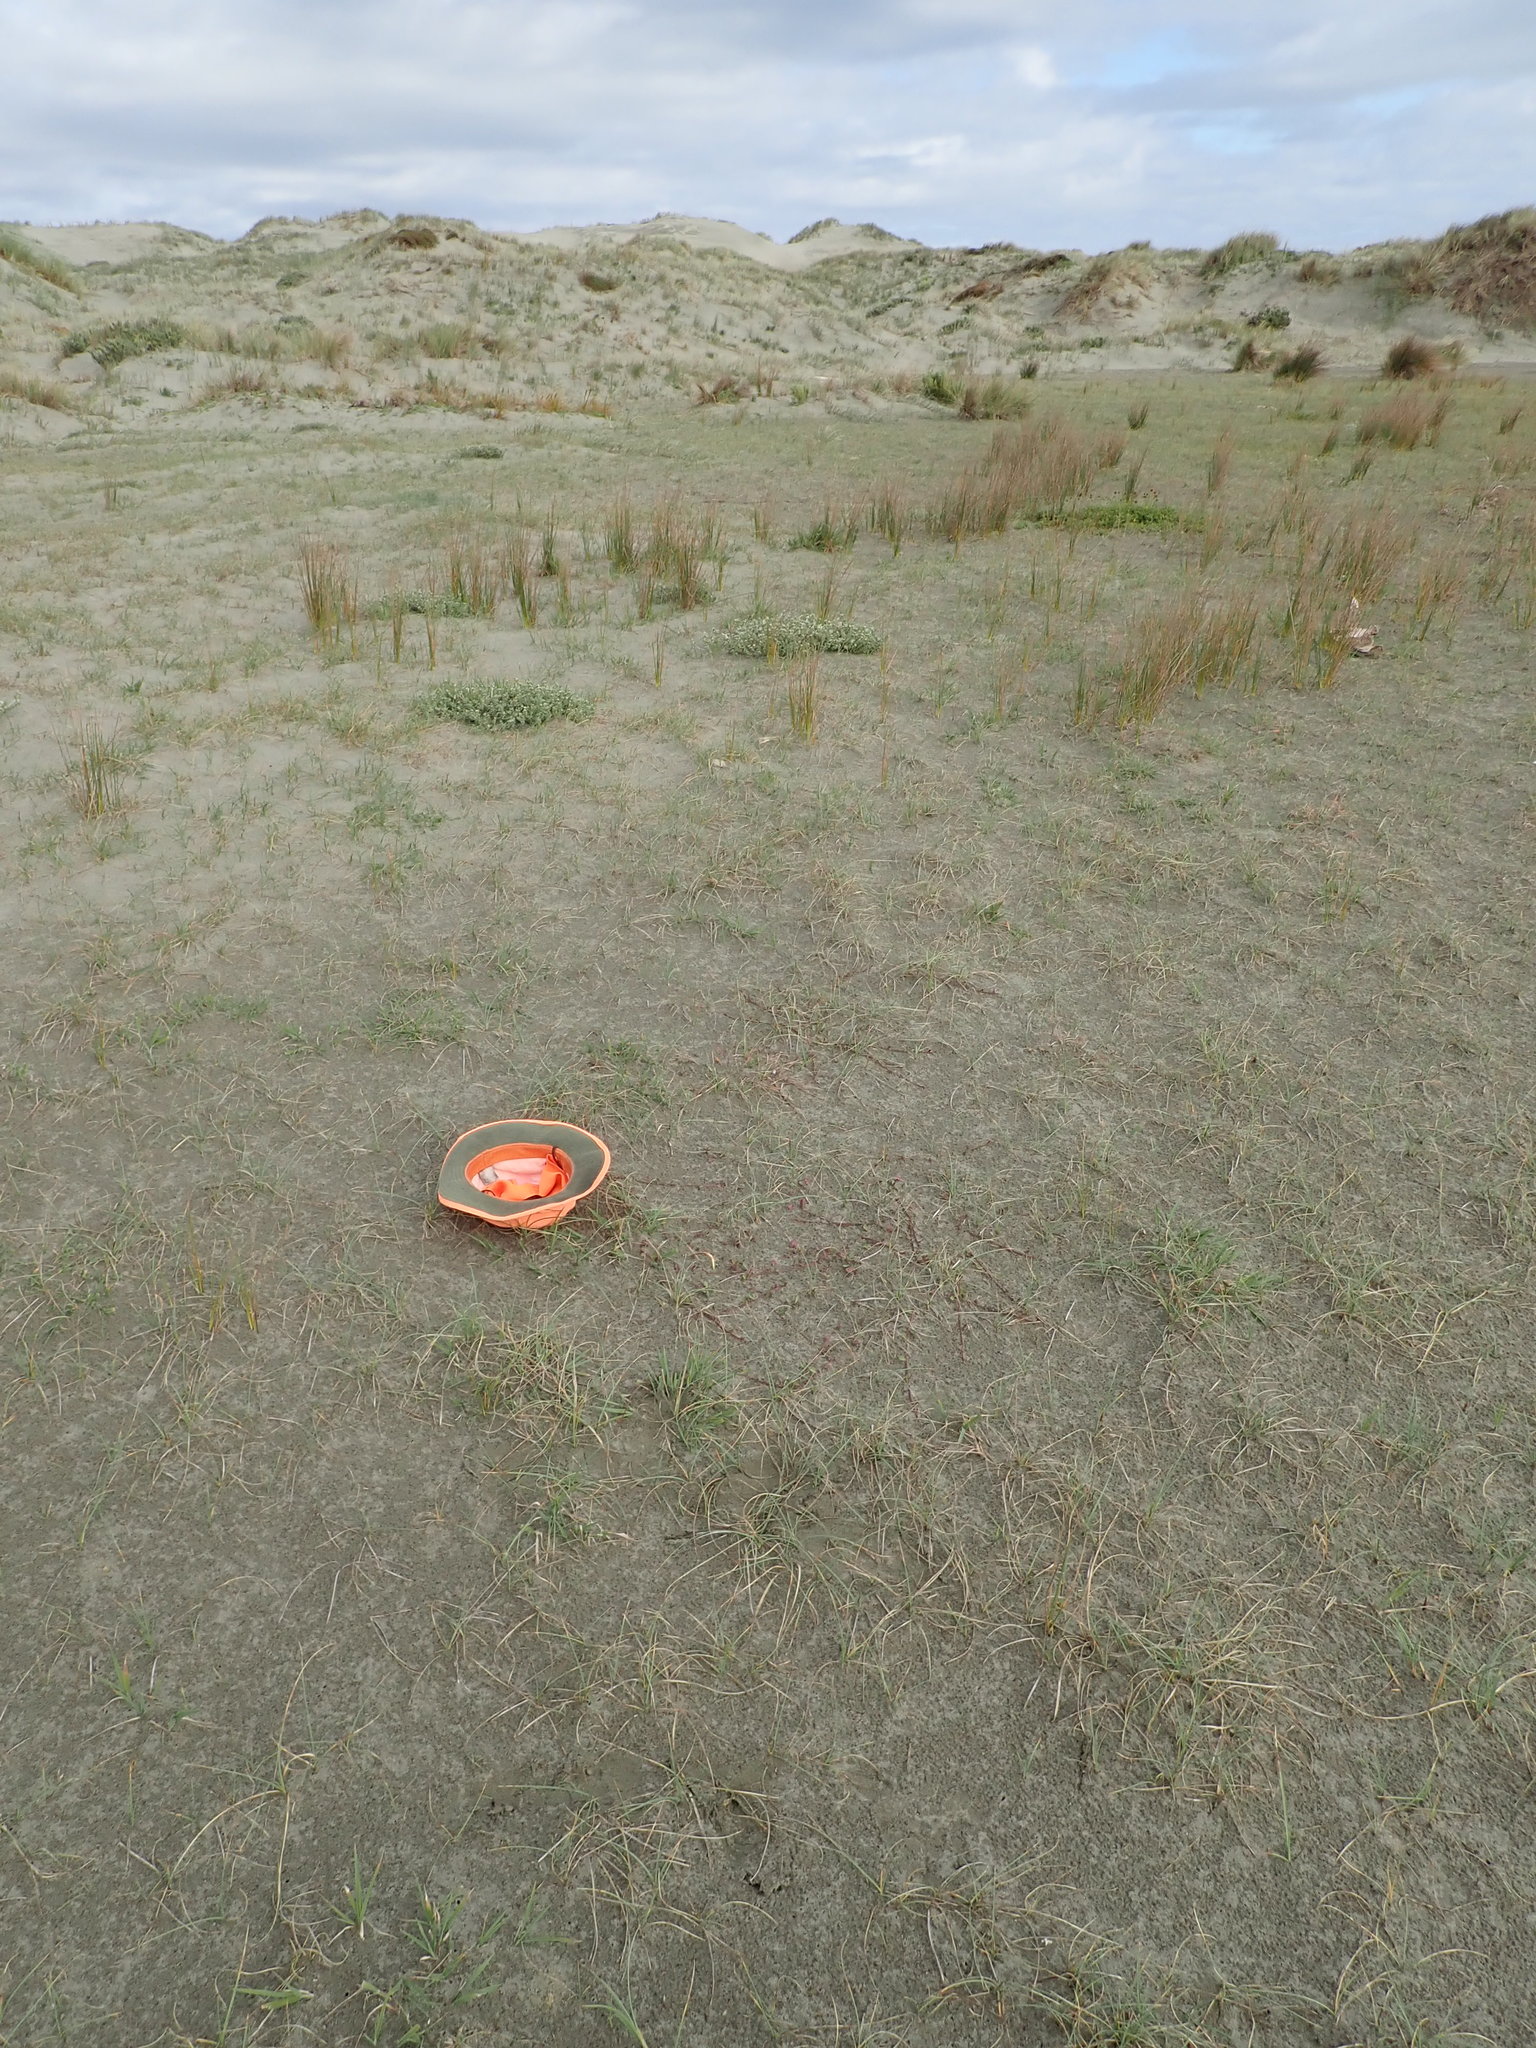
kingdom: Plantae
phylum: Tracheophyta
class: Magnoliopsida
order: Asterales
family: Campanulaceae
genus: Lobelia
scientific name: Lobelia anceps
